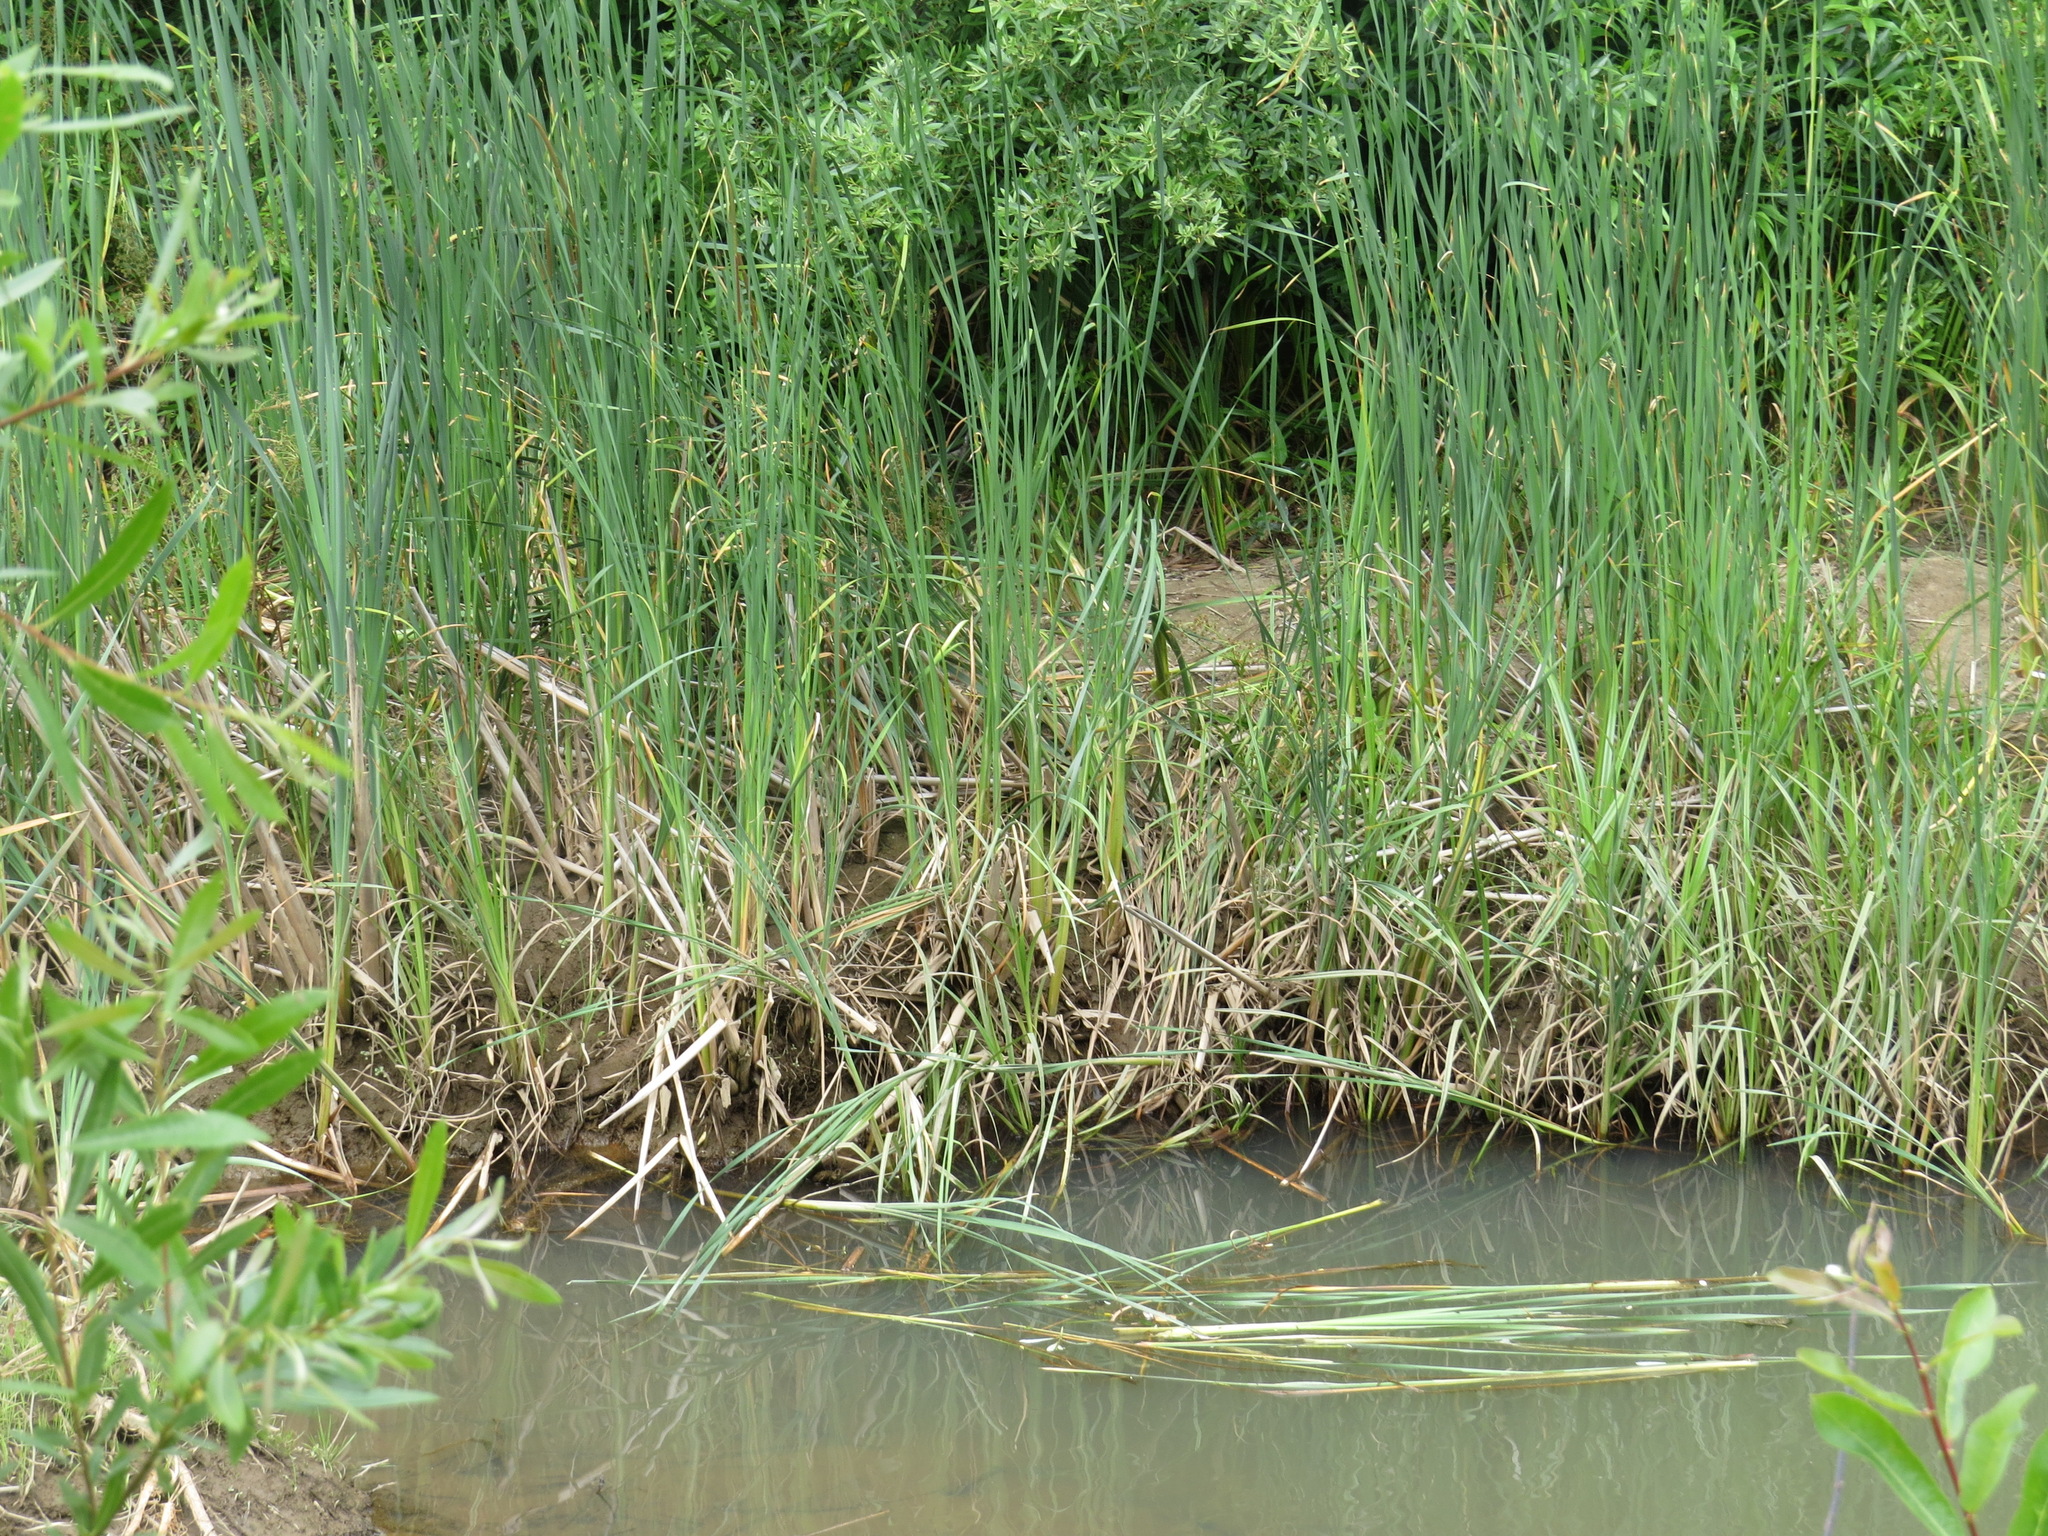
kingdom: Animalia
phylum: Chordata
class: Mammalia
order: Rodentia
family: Castoridae
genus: Castor
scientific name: Castor canadensis
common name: American beaver
